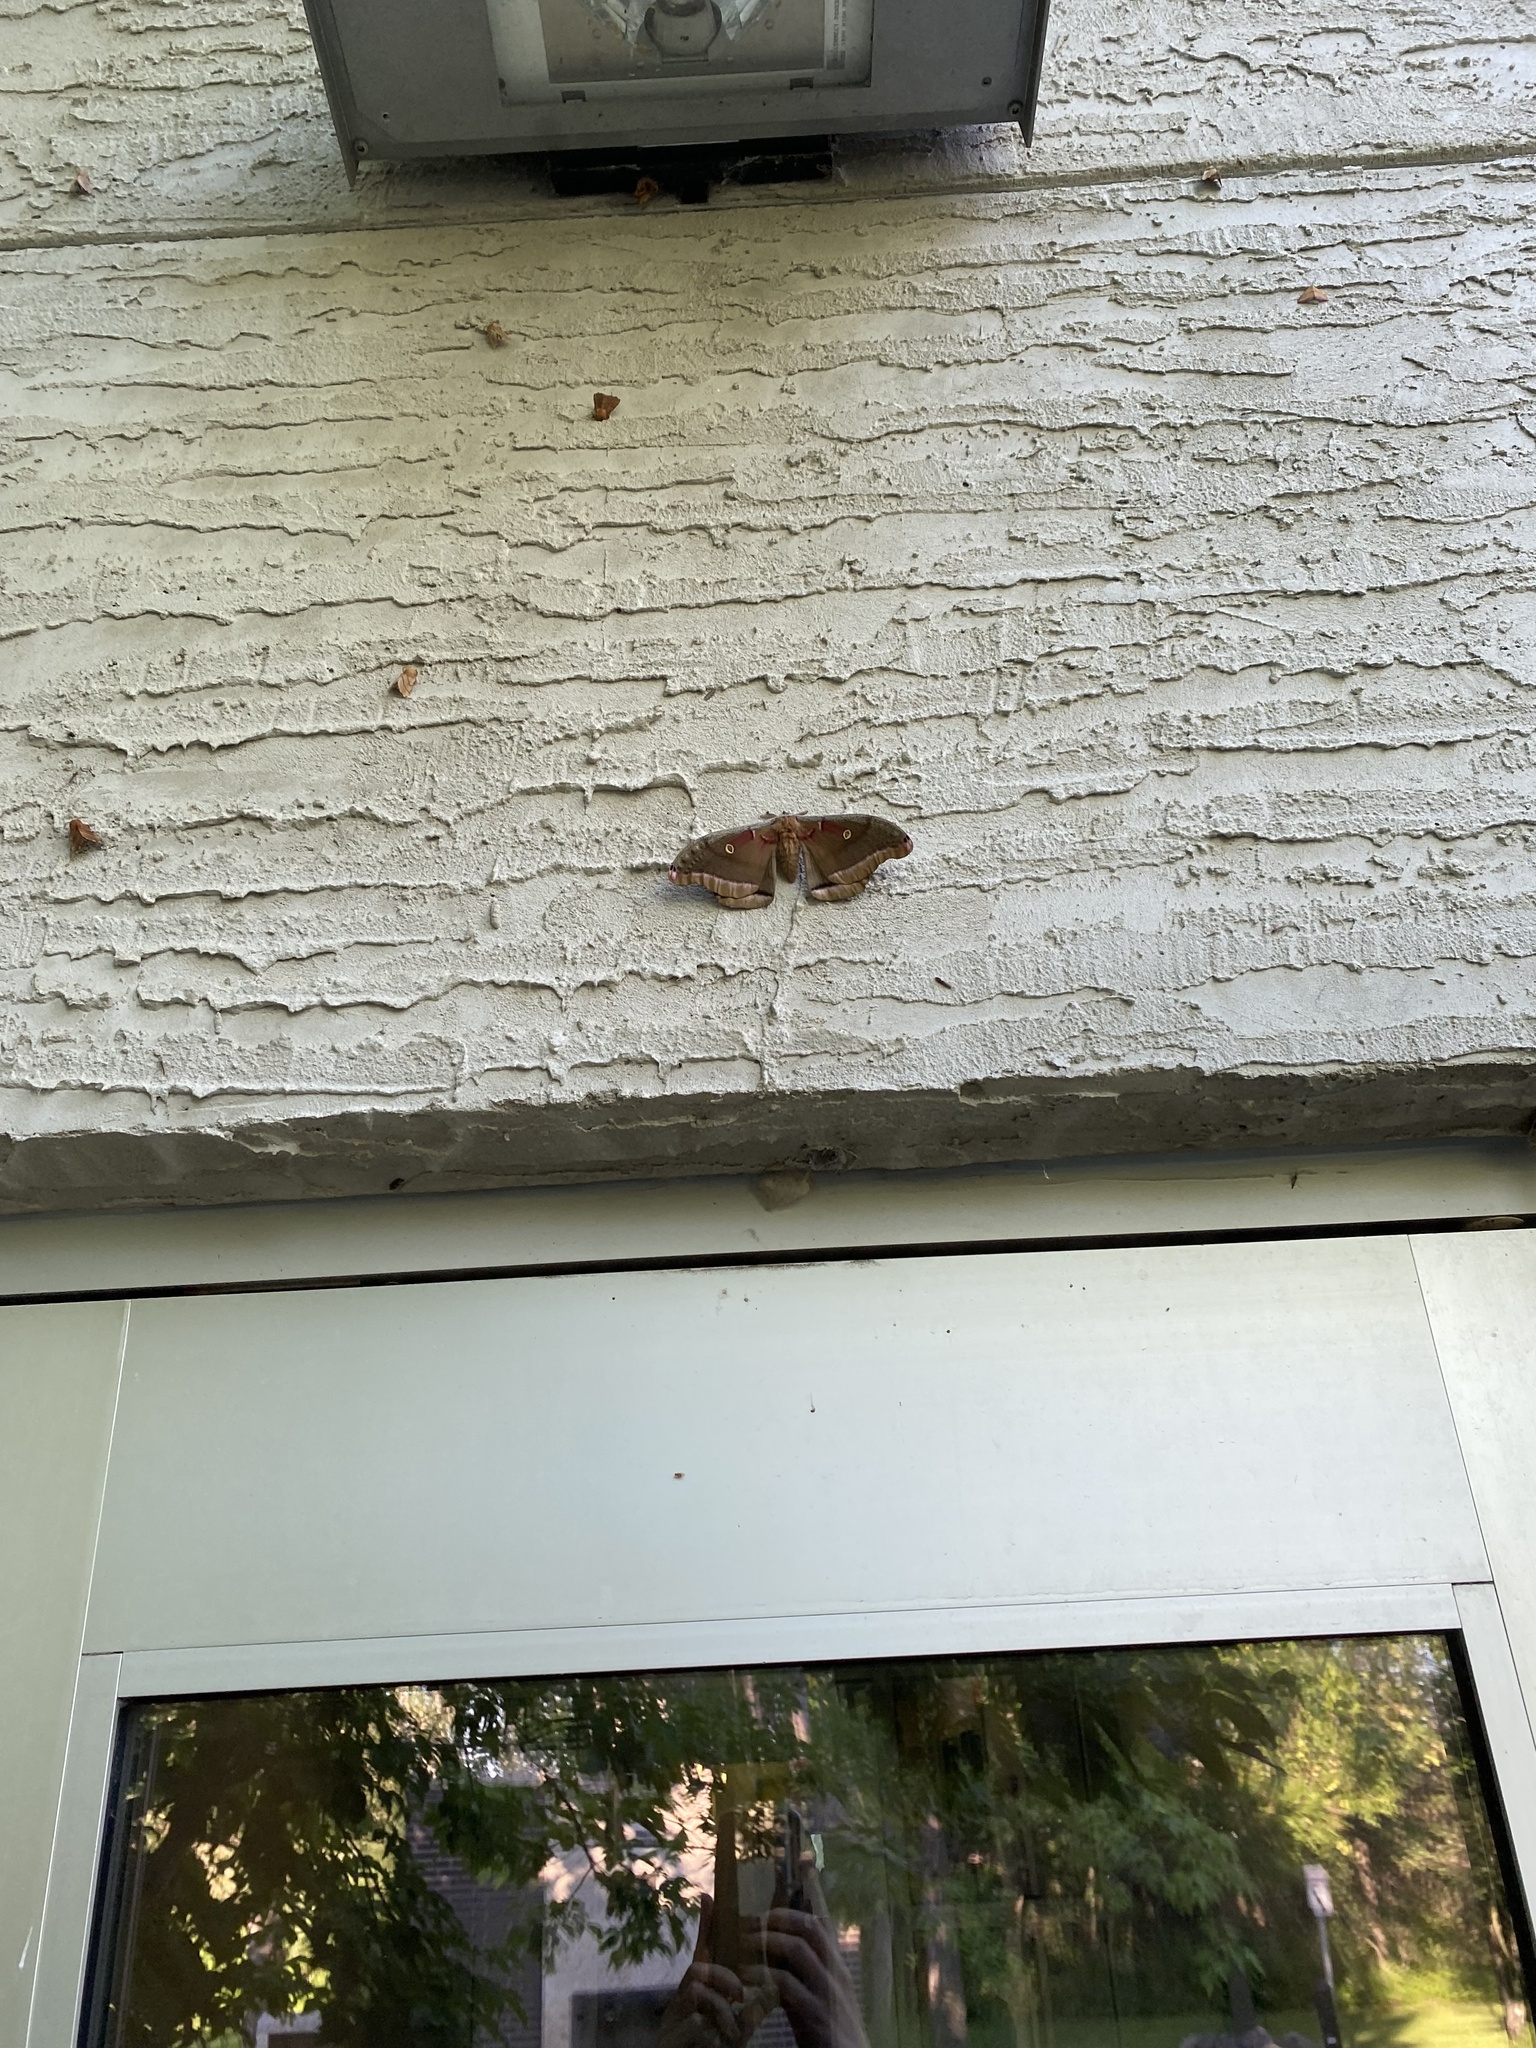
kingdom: Animalia
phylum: Arthropoda
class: Insecta
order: Lepidoptera
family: Saturniidae
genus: Antheraea
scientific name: Antheraea polyphemus
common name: Polyphemus moth
